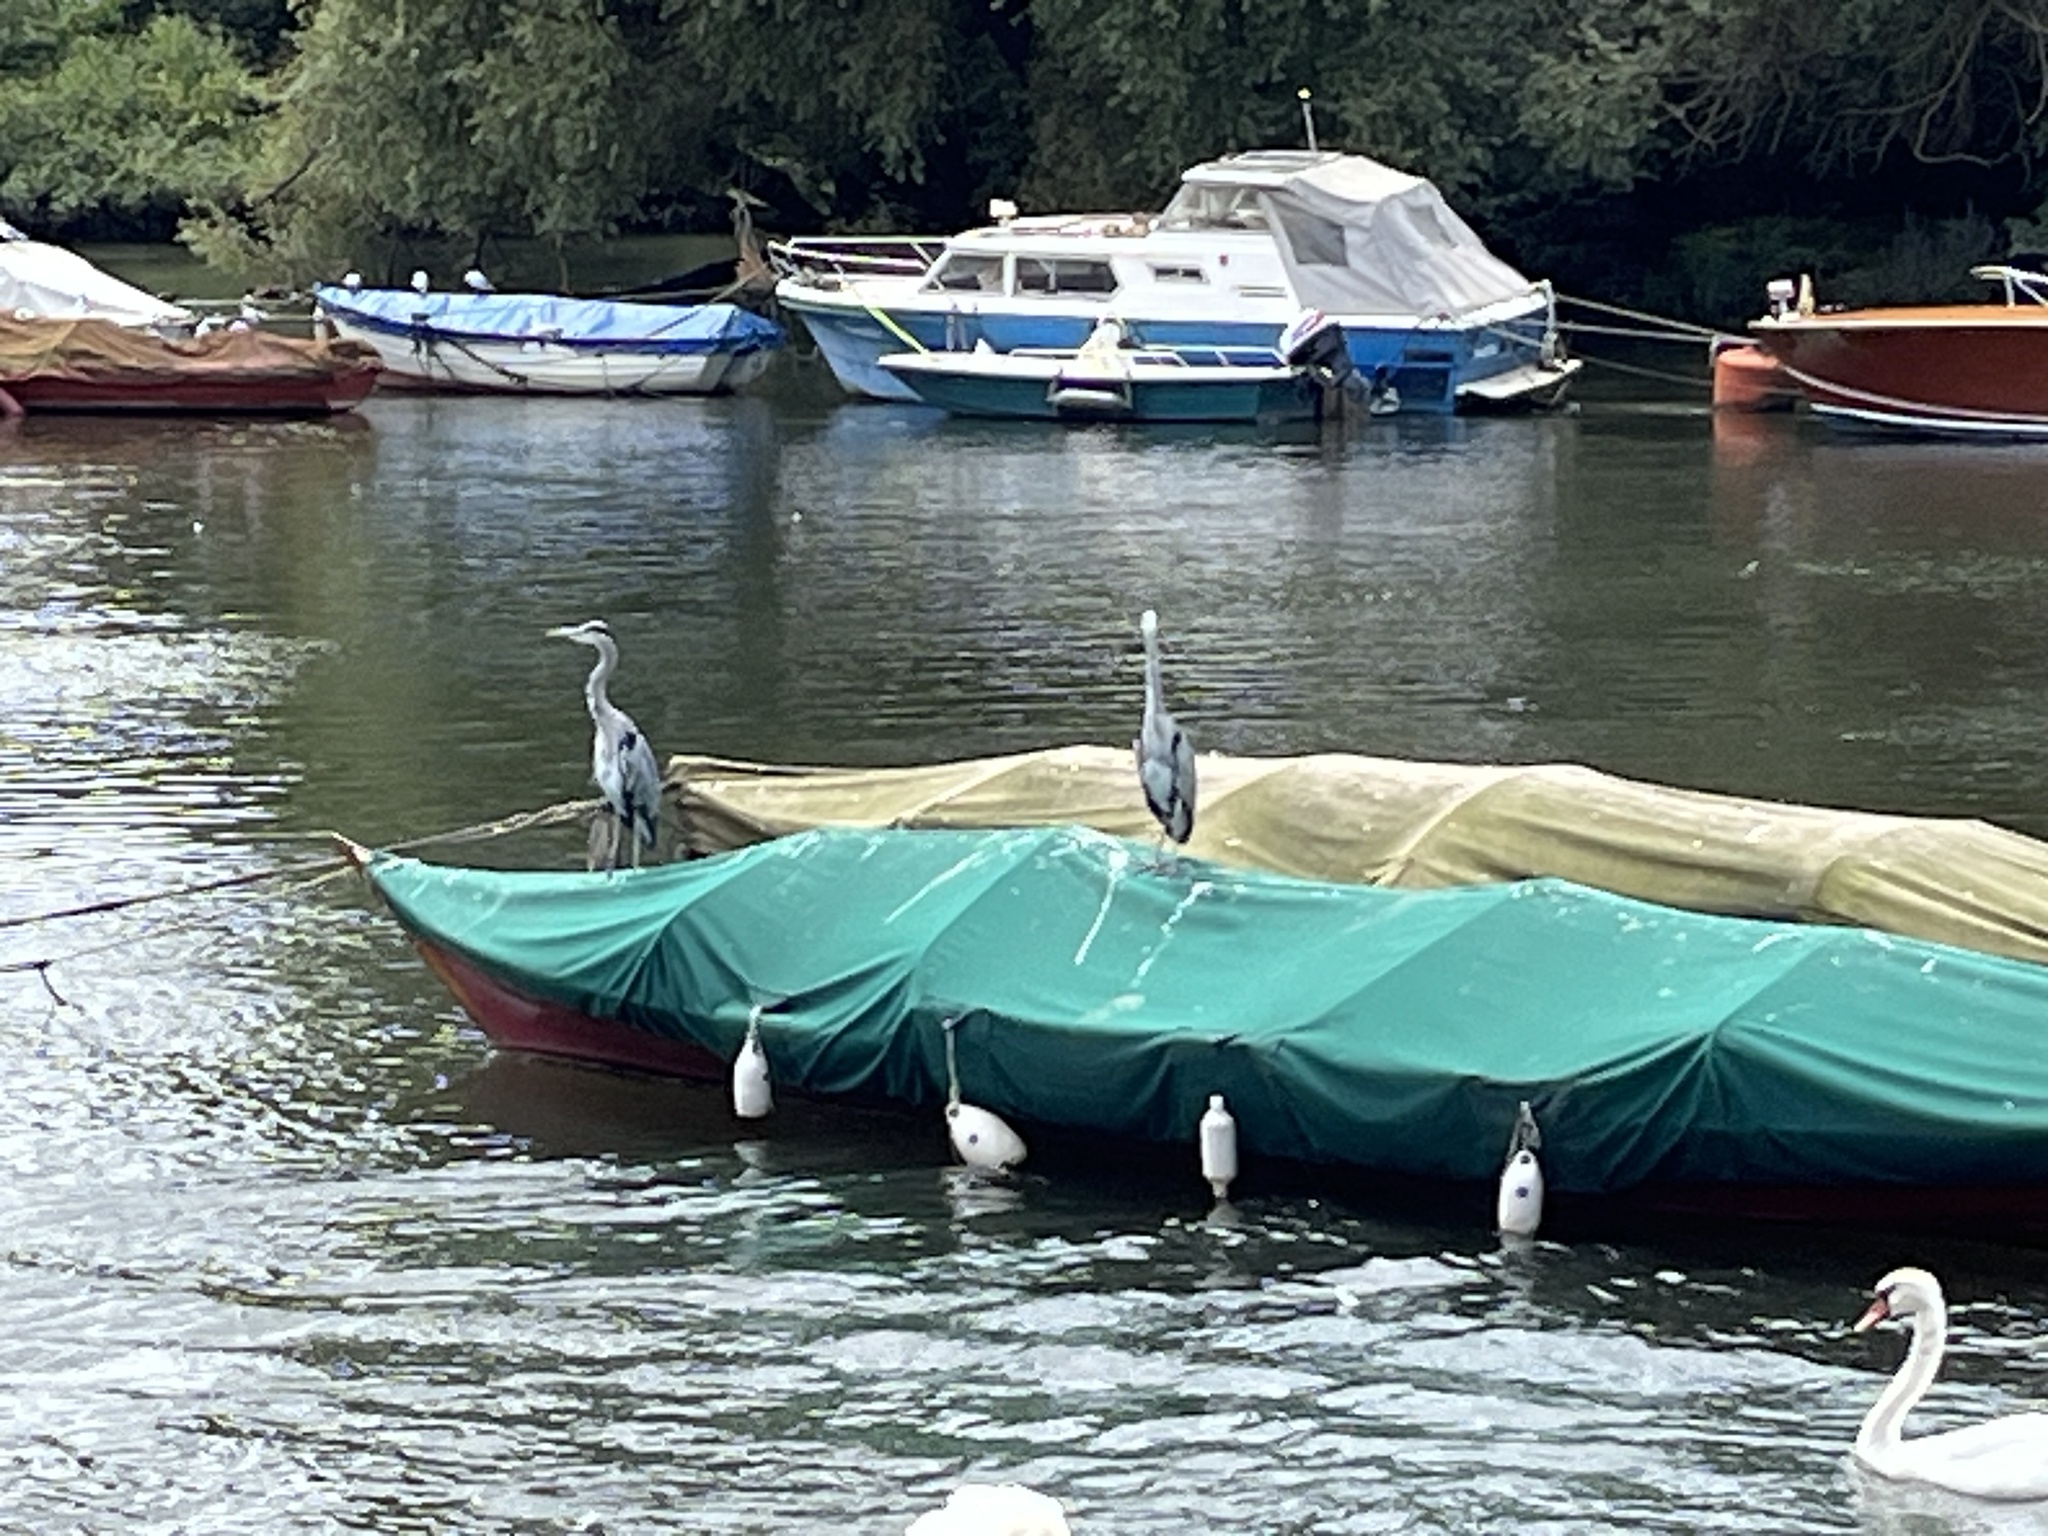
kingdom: Animalia
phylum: Chordata
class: Aves
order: Pelecaniformes
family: Ardeidae
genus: Ardea
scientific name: Ardea cinerea
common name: Grey heron
